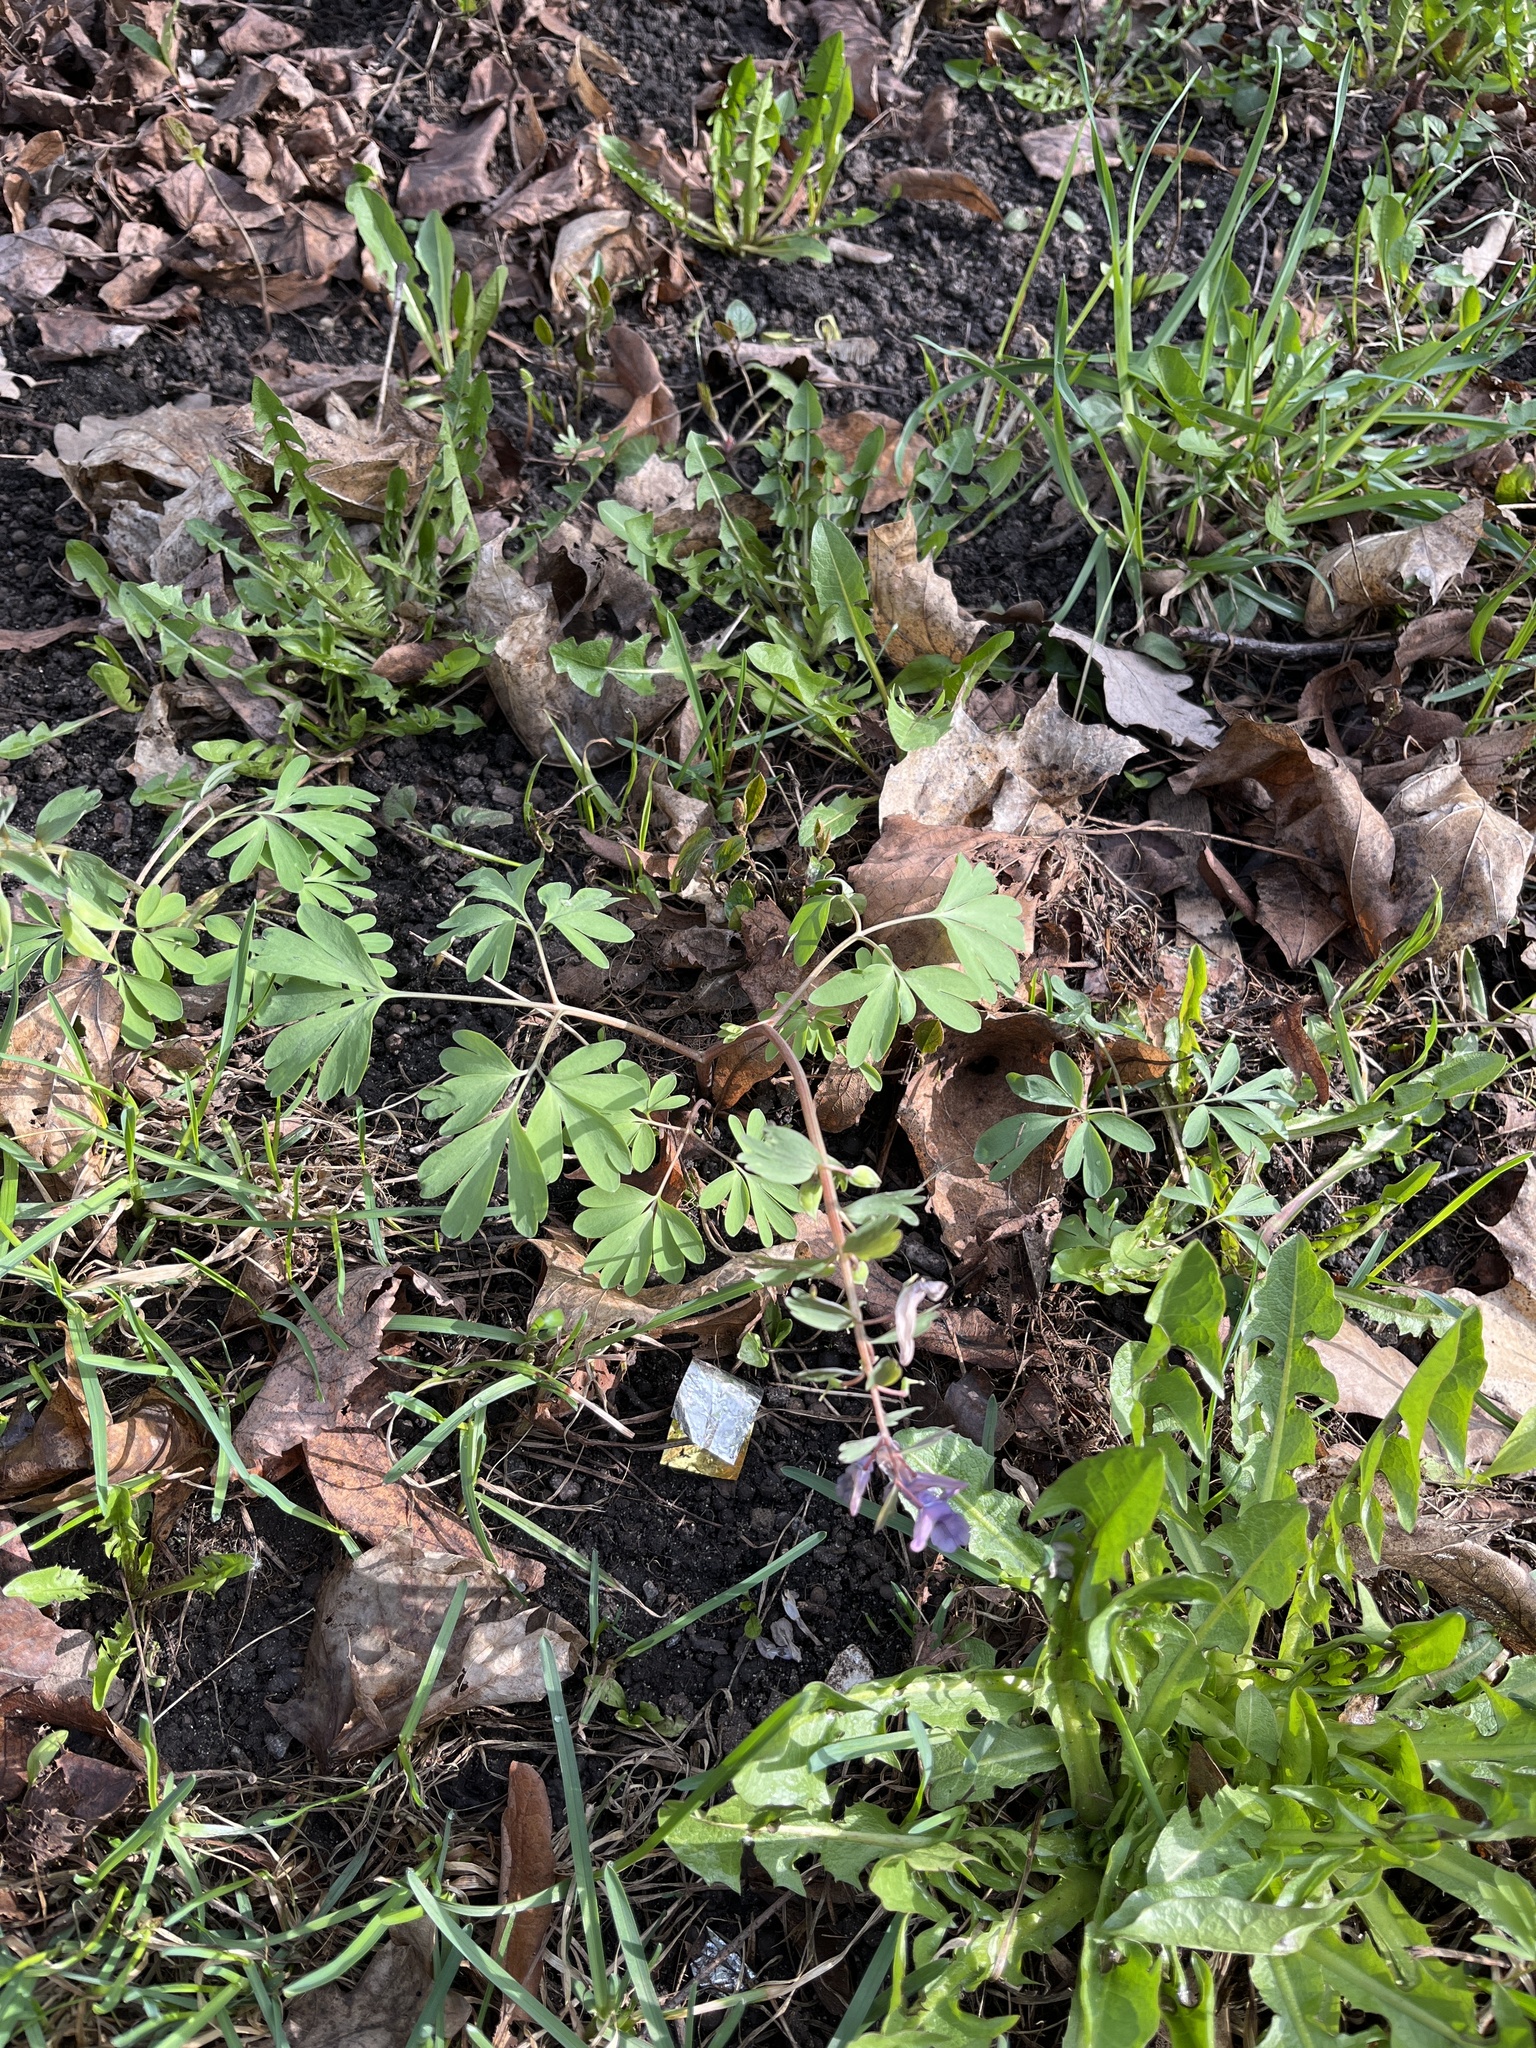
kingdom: Plantae
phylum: Tracheophyta
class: Magnoliopsida
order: Ranunculales
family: Papaveraceae
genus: Corydalis
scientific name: Corydalis solida
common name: Bird-in-a-bush
